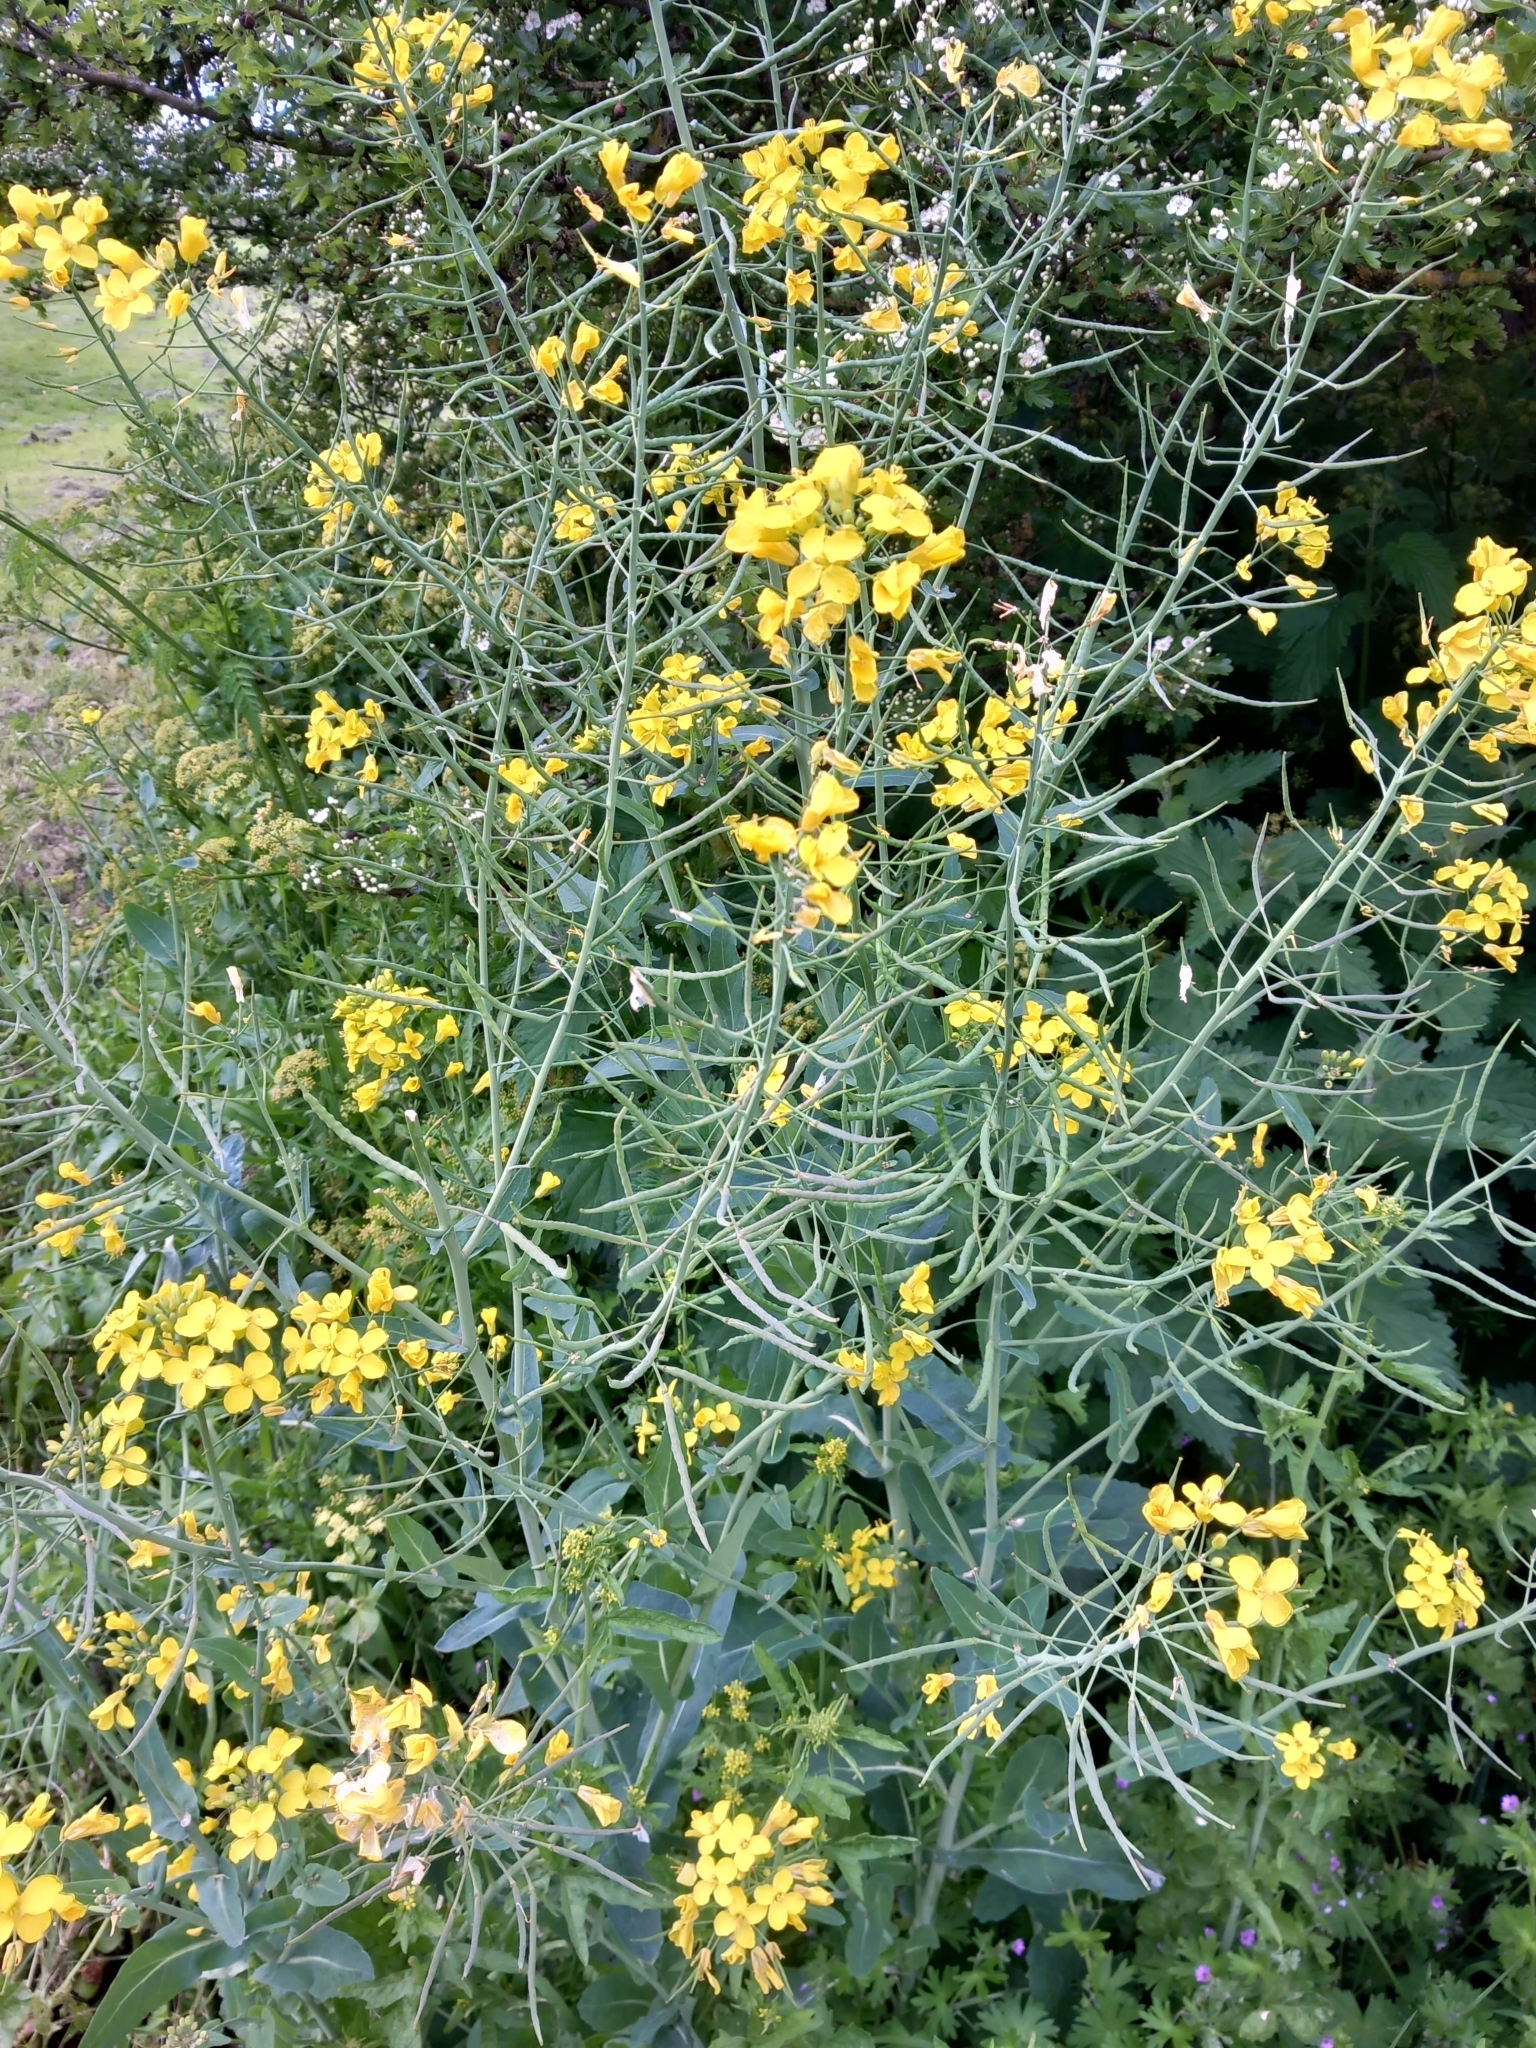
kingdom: Plantae
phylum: Tracheophyta
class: Magnoliopsida
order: Brassicales
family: Brassicaceae
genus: Brassica
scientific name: Brassica napus
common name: Rape
